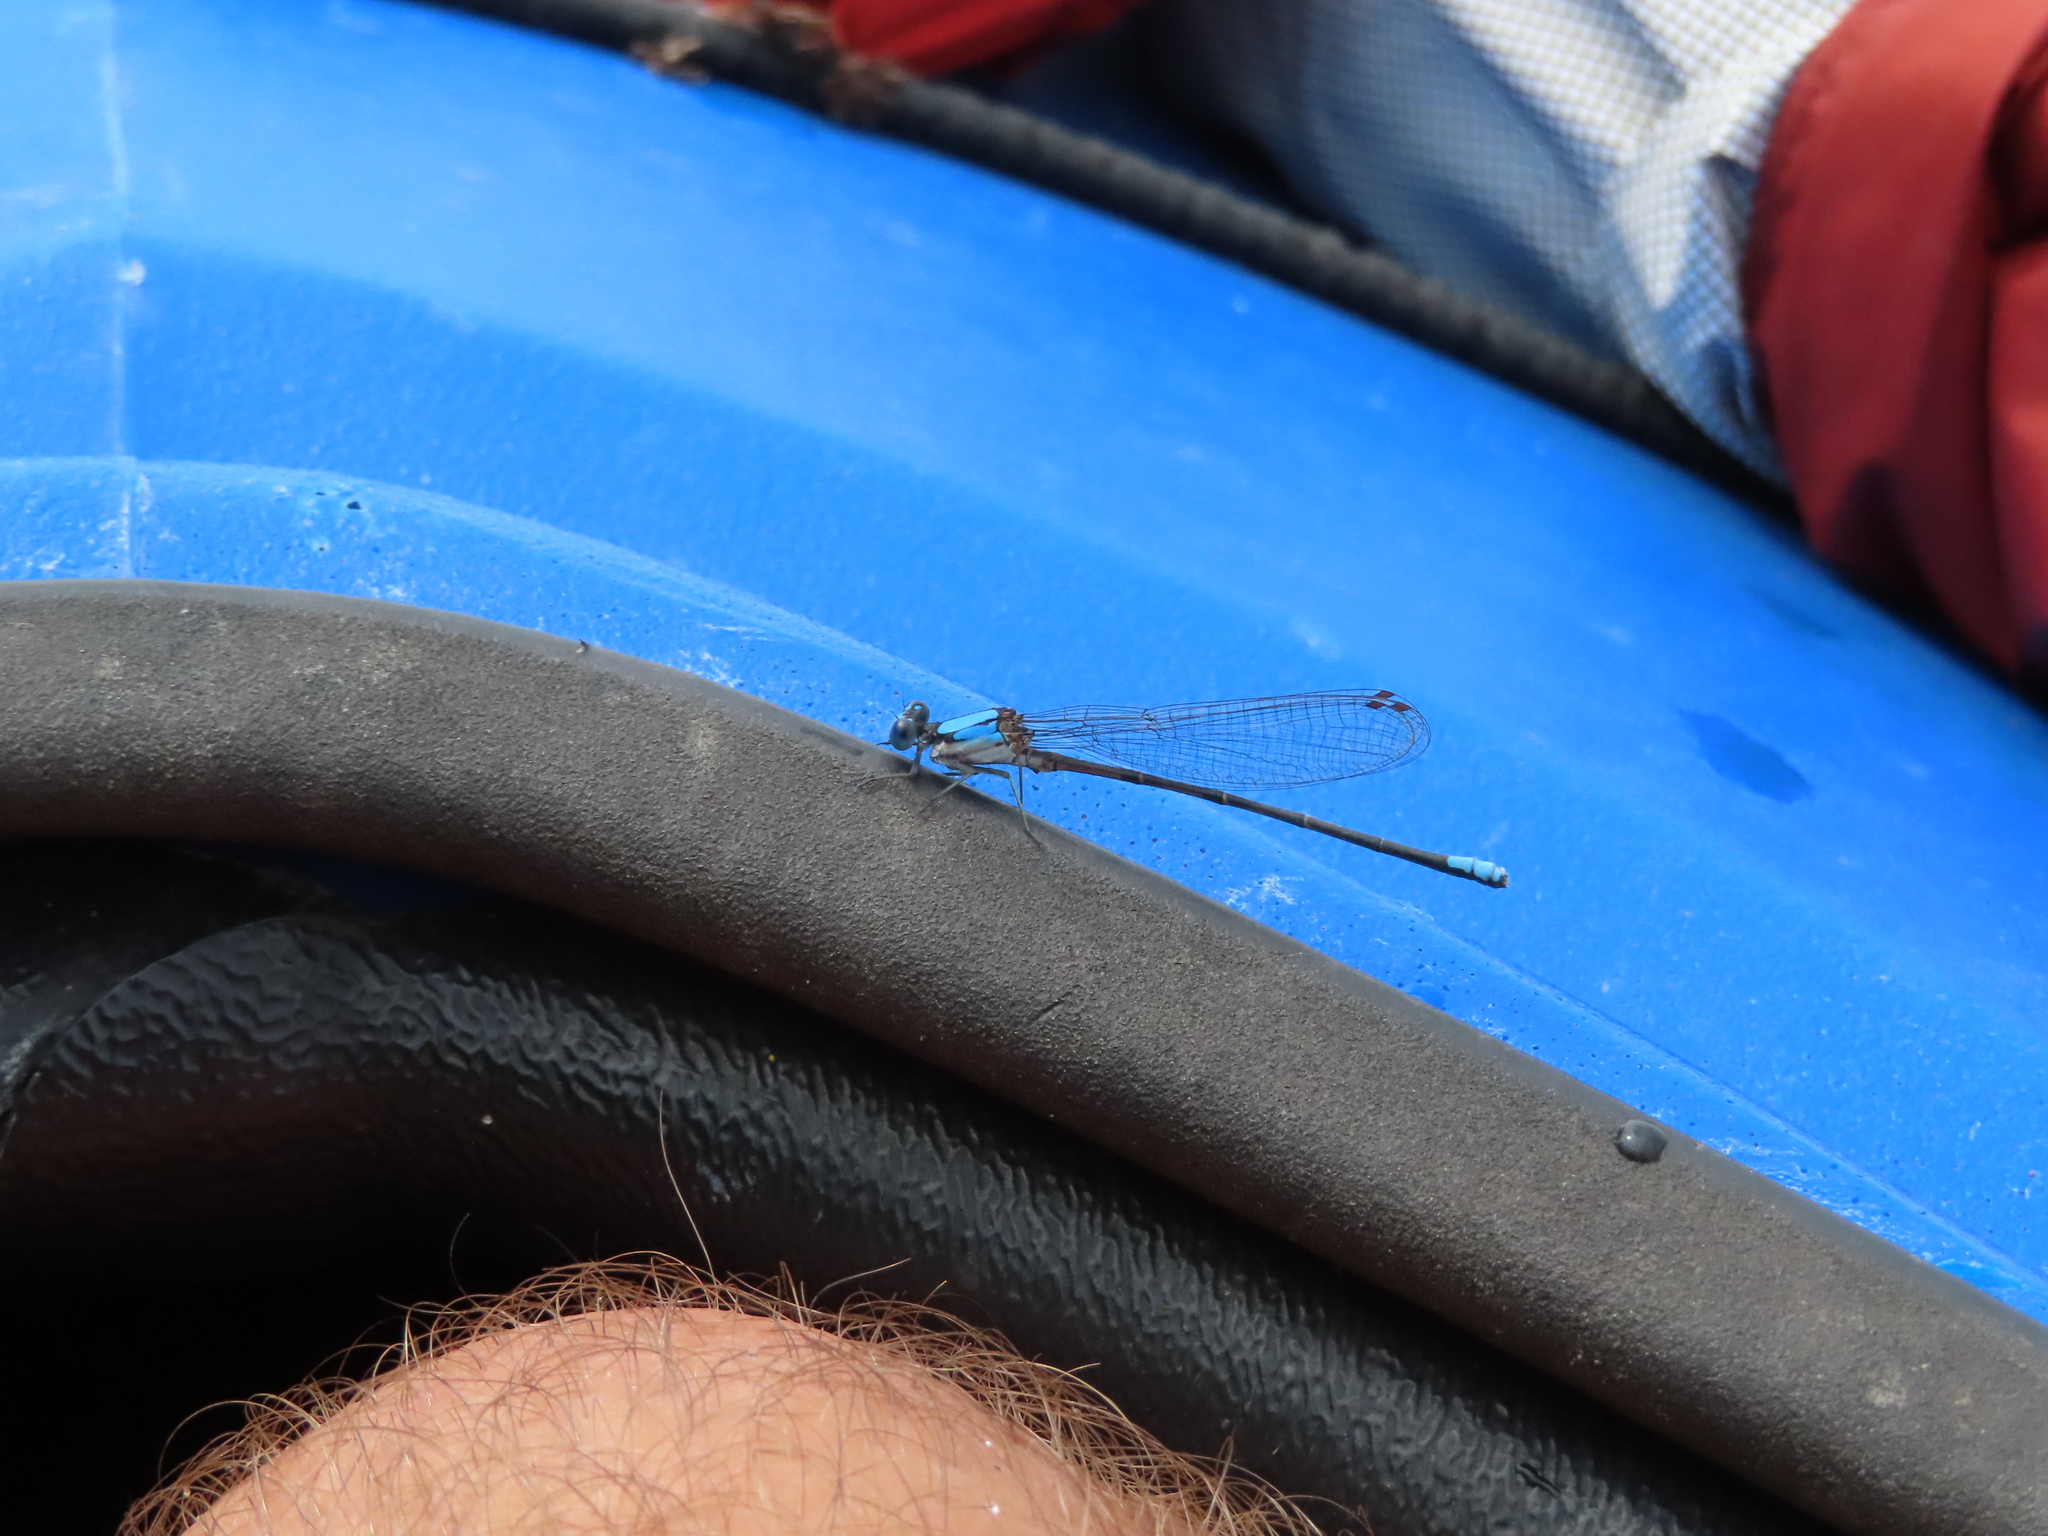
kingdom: Animalia
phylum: Arthropoda
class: Insecta
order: Odonata
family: Coenagrionidae
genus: Argia
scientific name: Argia apicalis
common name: Blue-fronted dancer
